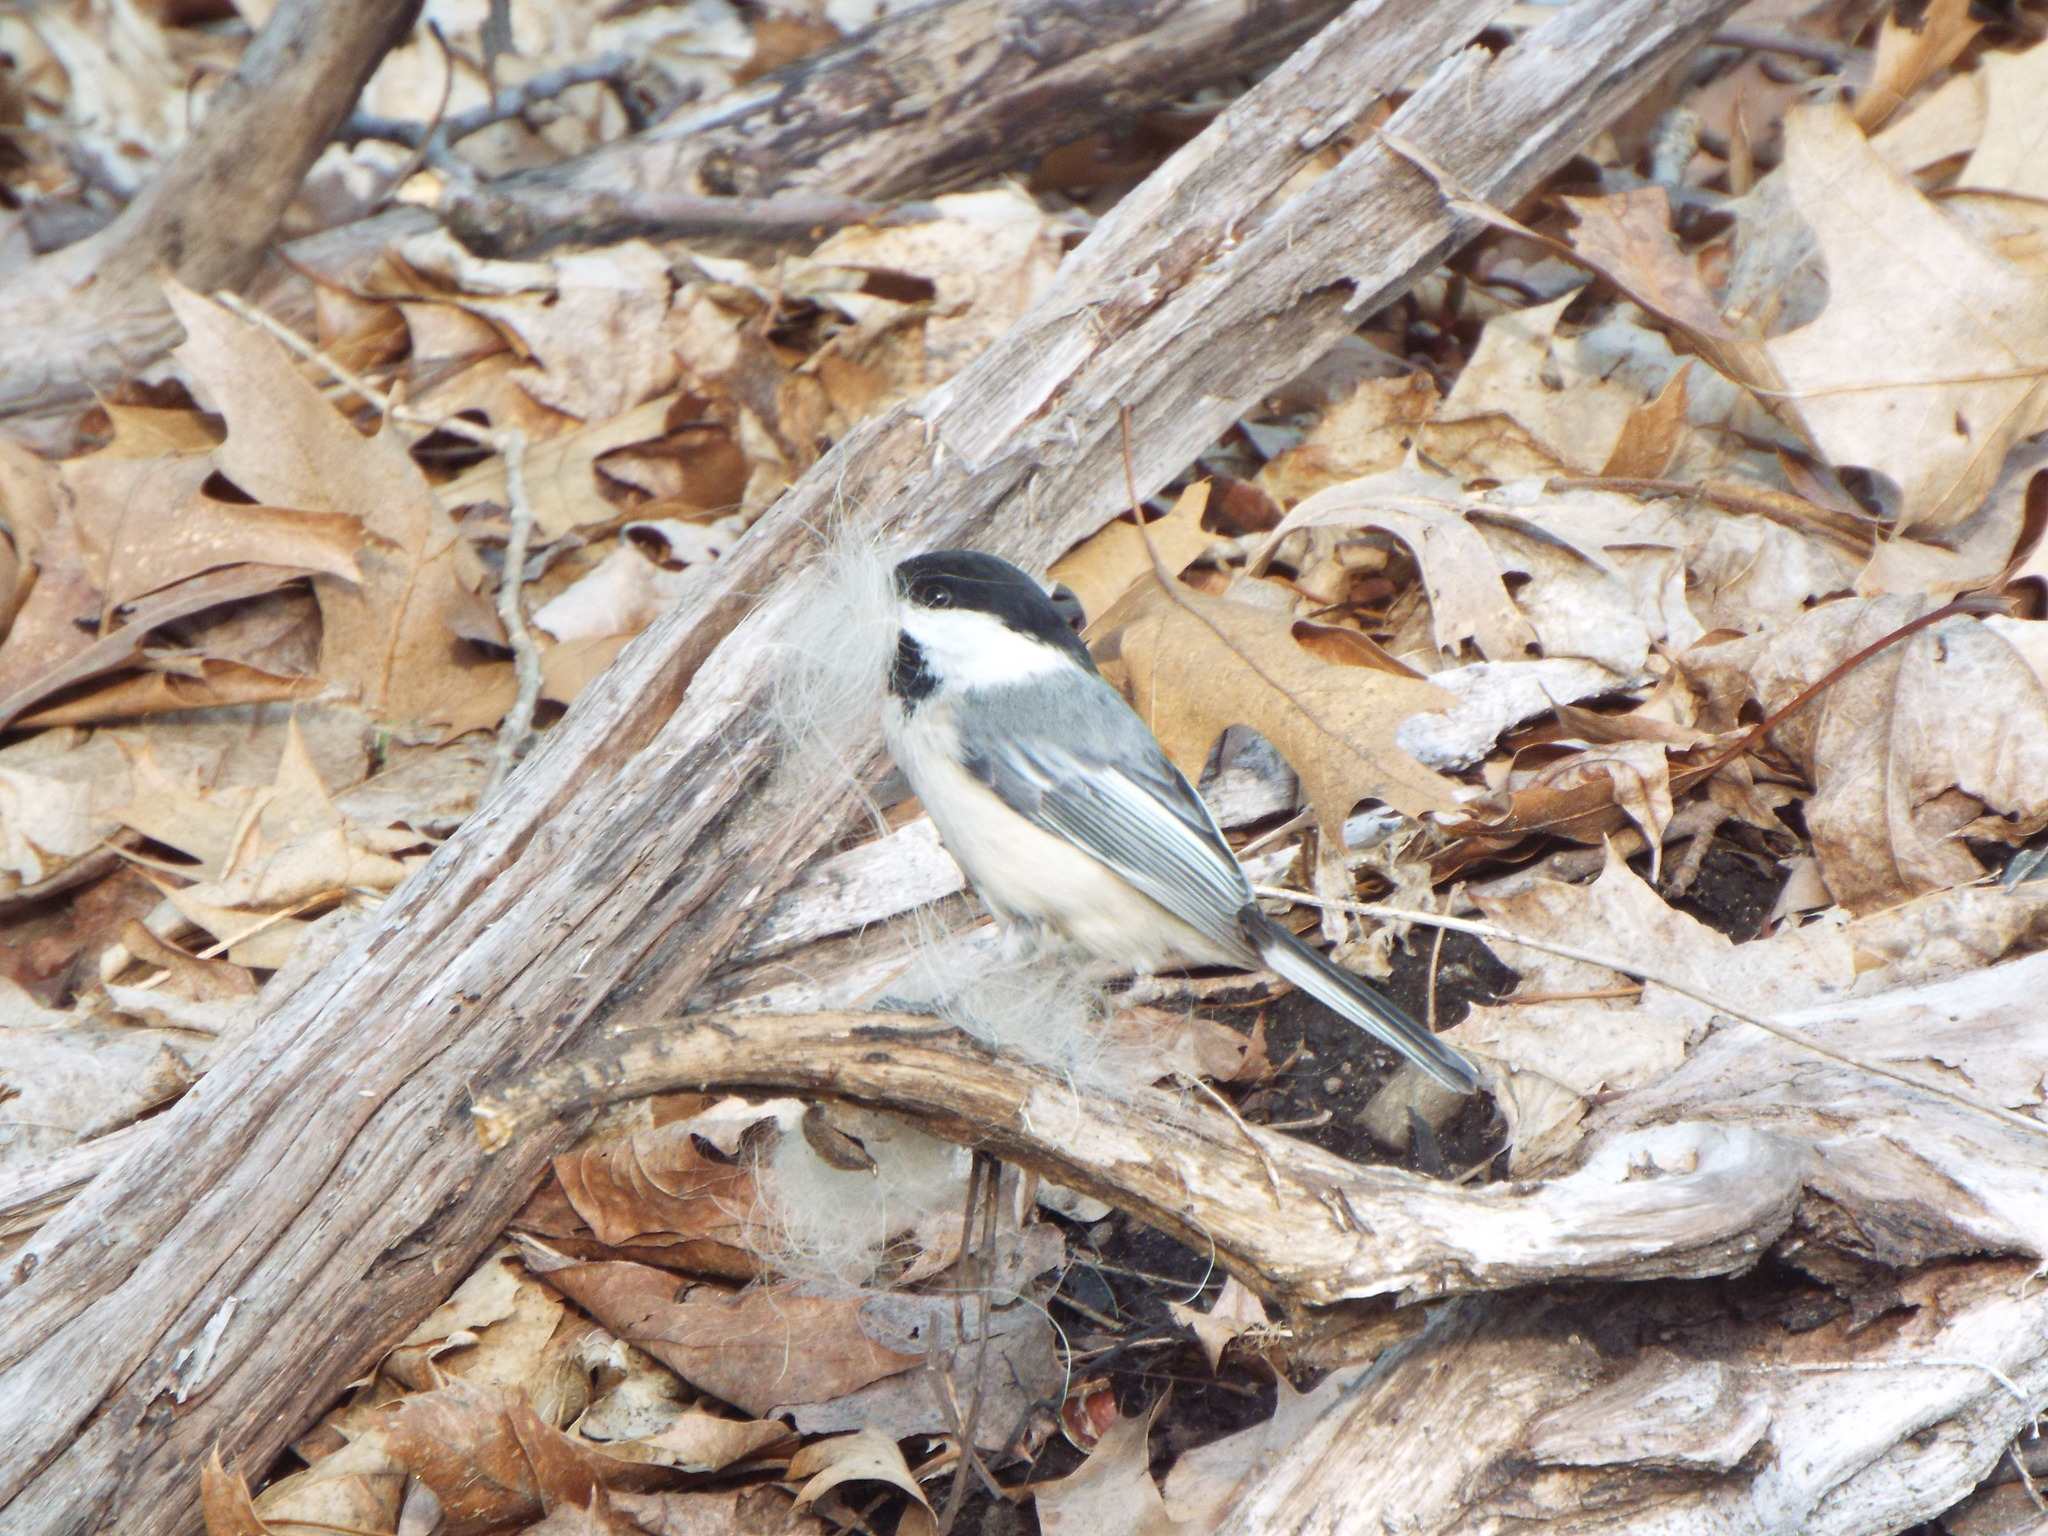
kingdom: Animalia
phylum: Chordata
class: Aves
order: Passeriformes
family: Paridae
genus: Poecile
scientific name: Poecile atricapillus
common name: Black-capped chickadee
